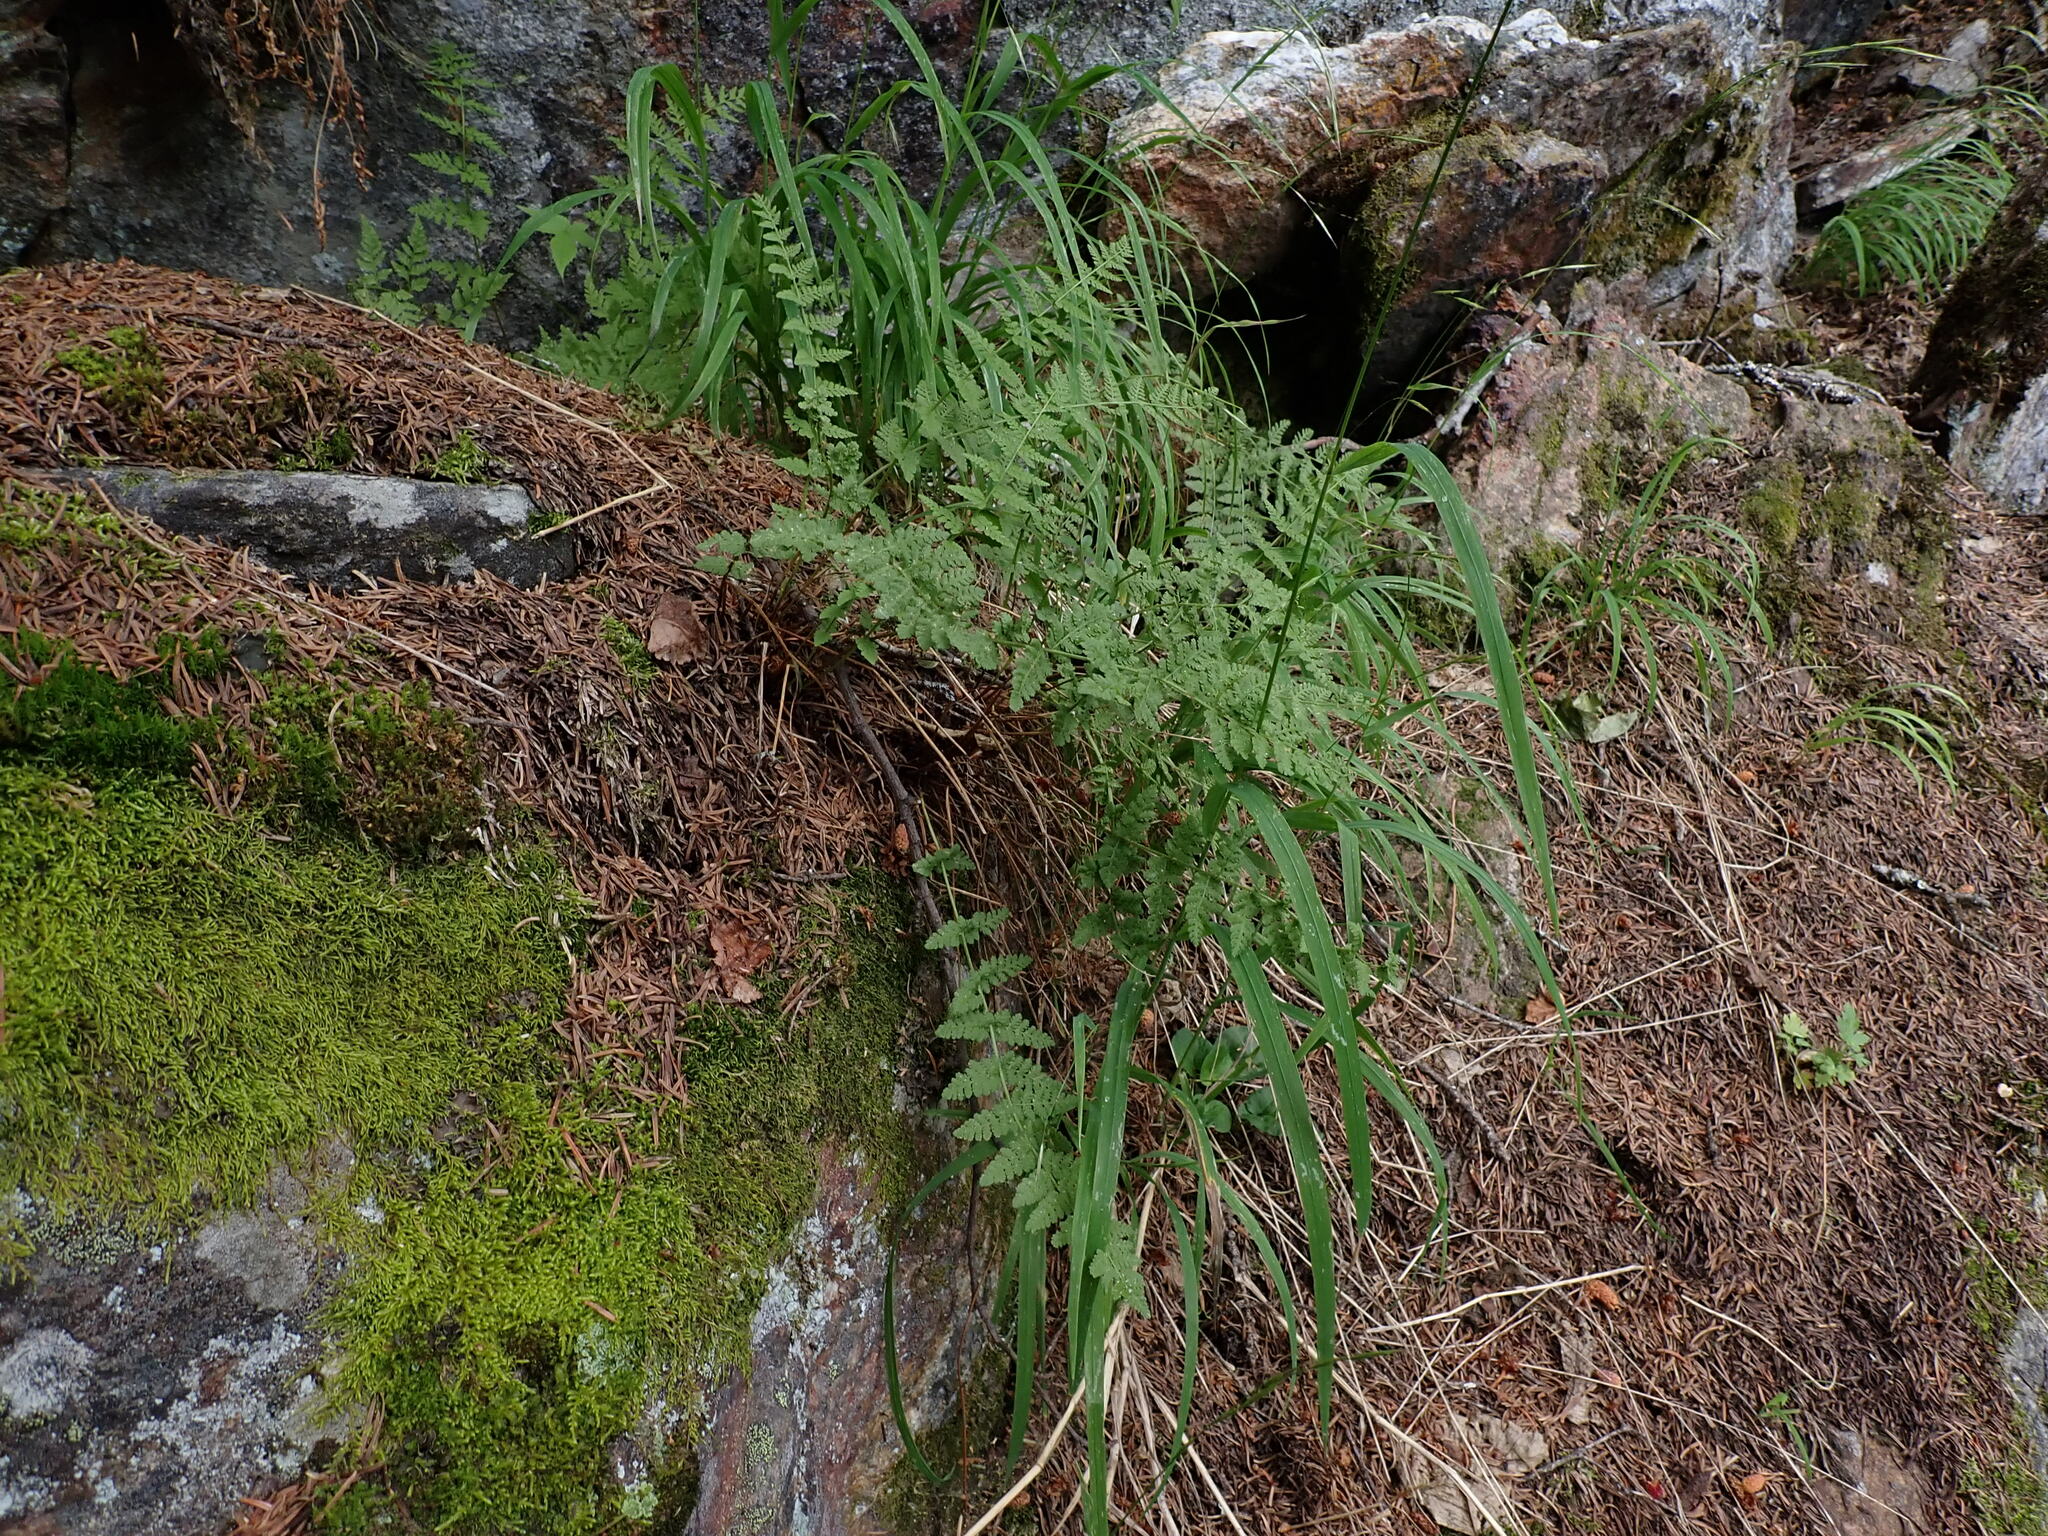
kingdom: Plantae
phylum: Tracheophyta
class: Polypodiopsida
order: Polypodiales
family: Woodsiaceae
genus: Physematium
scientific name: Physematium scopulinum
